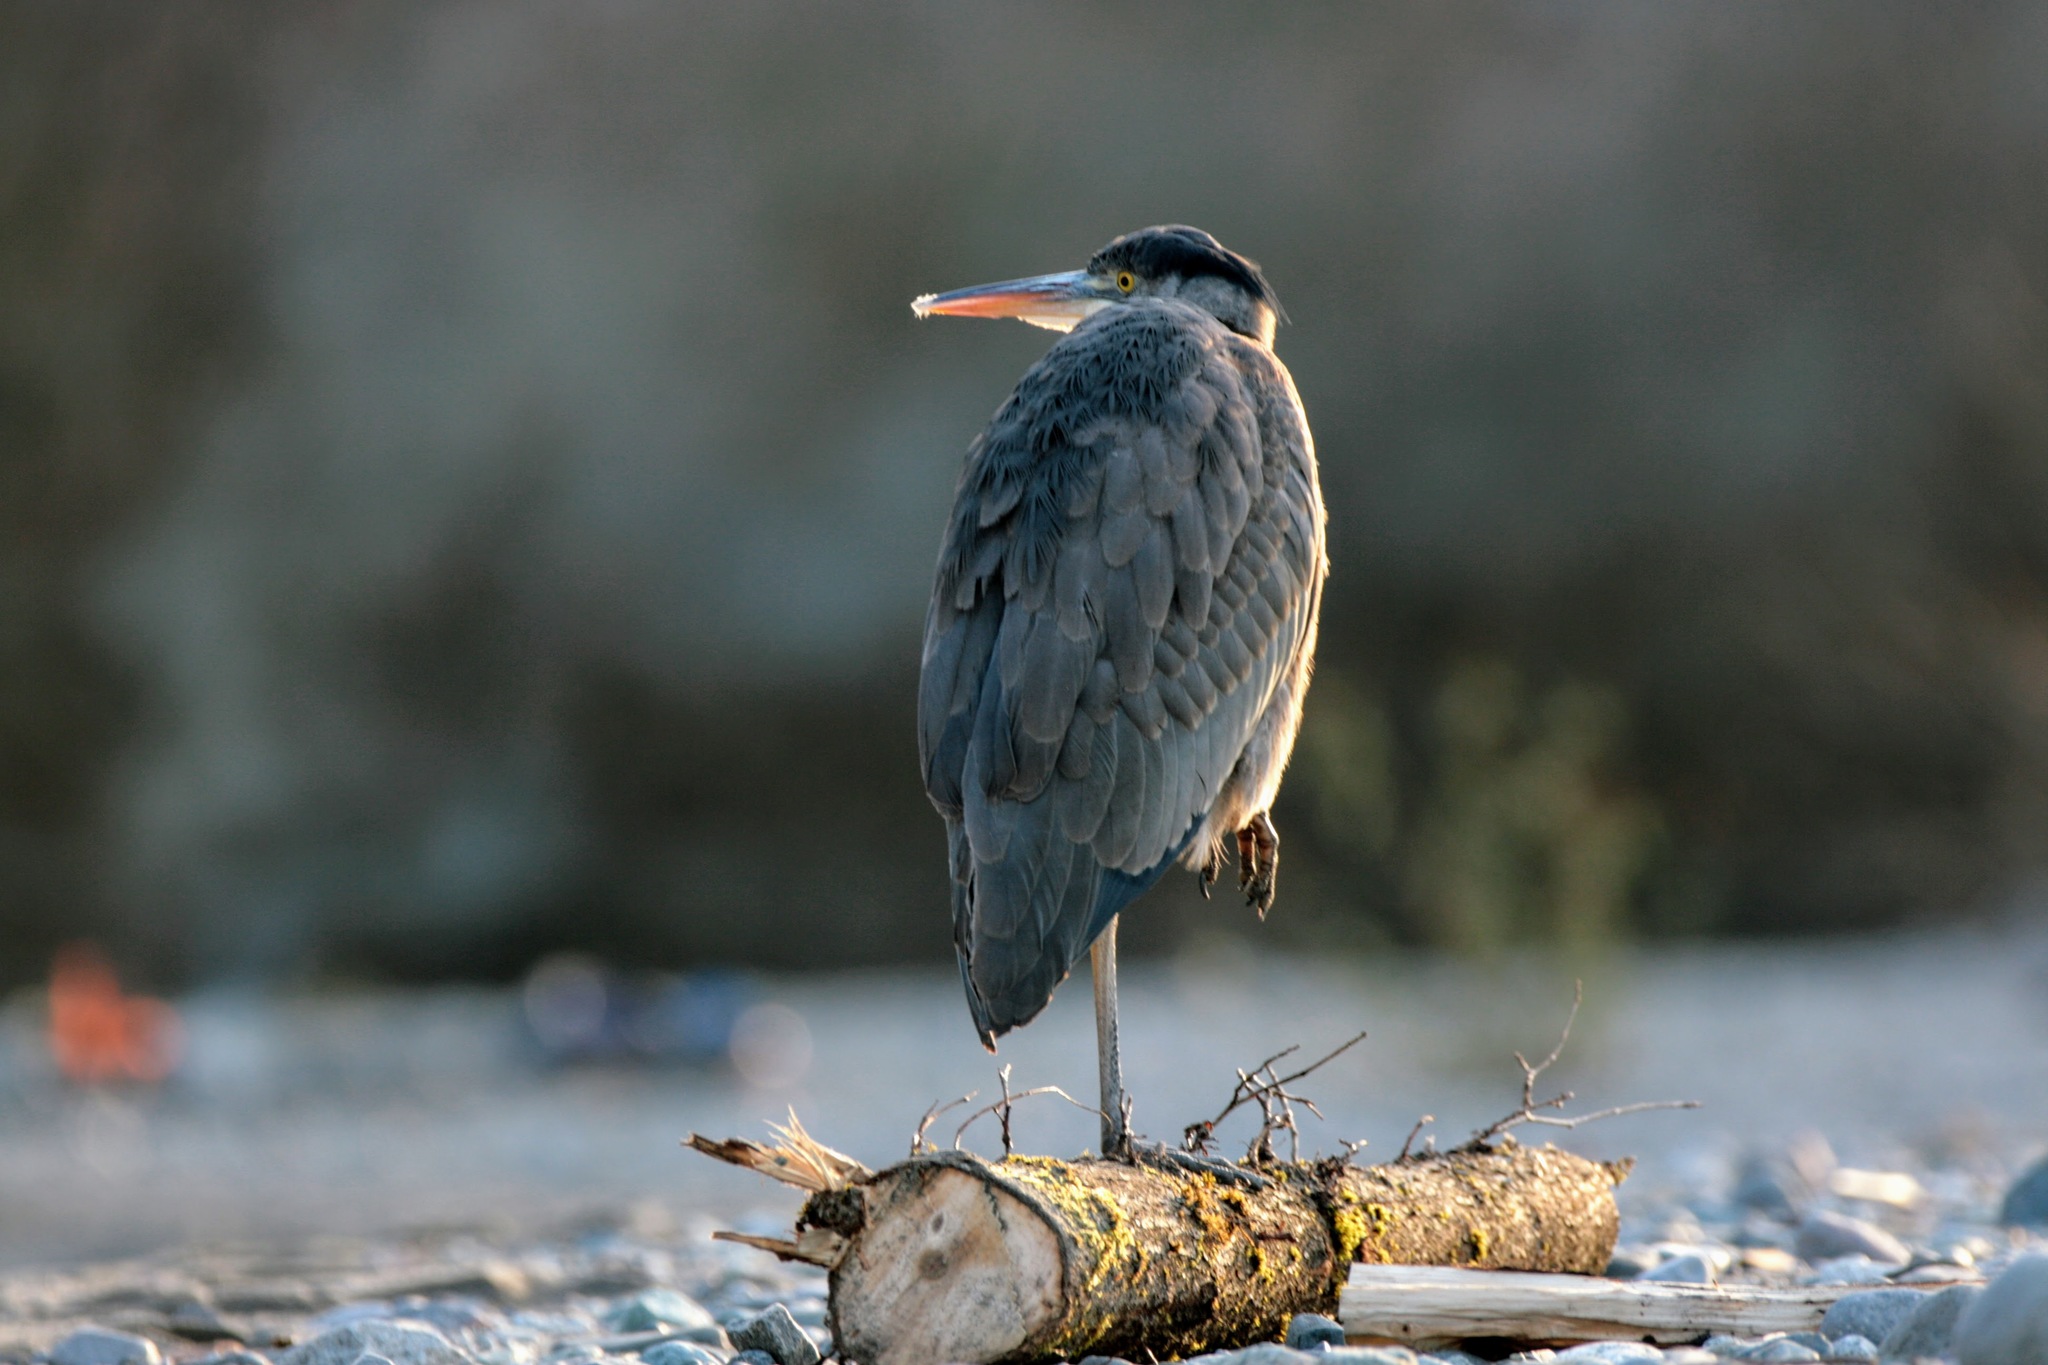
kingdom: Animalia
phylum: Chordata
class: Aves
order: Pelecaniformes
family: Ardeidae
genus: Ardea
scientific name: Ardea herodias
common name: Great blue heron
